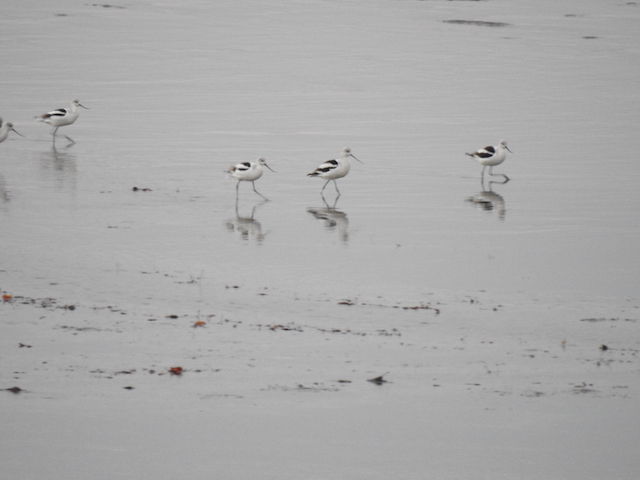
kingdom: Animalia
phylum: Chordata
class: Aves
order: Charadriiformes
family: Recurvirostridae
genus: Recurvirostra
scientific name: Recurvirostra americana
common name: American avocet
